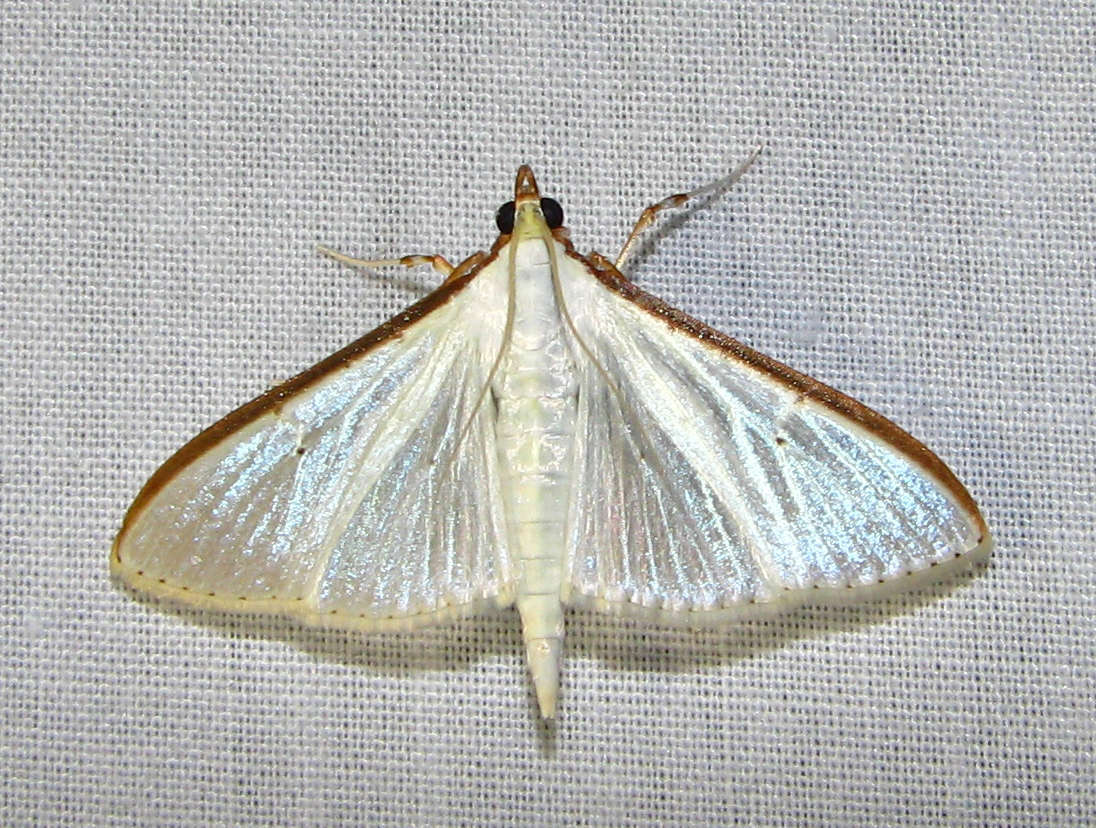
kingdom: Animalia
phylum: Arthropoda
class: Insecta
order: Lepidoptera
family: Crambidae
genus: Palpita
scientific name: Palpita austrounionalis
